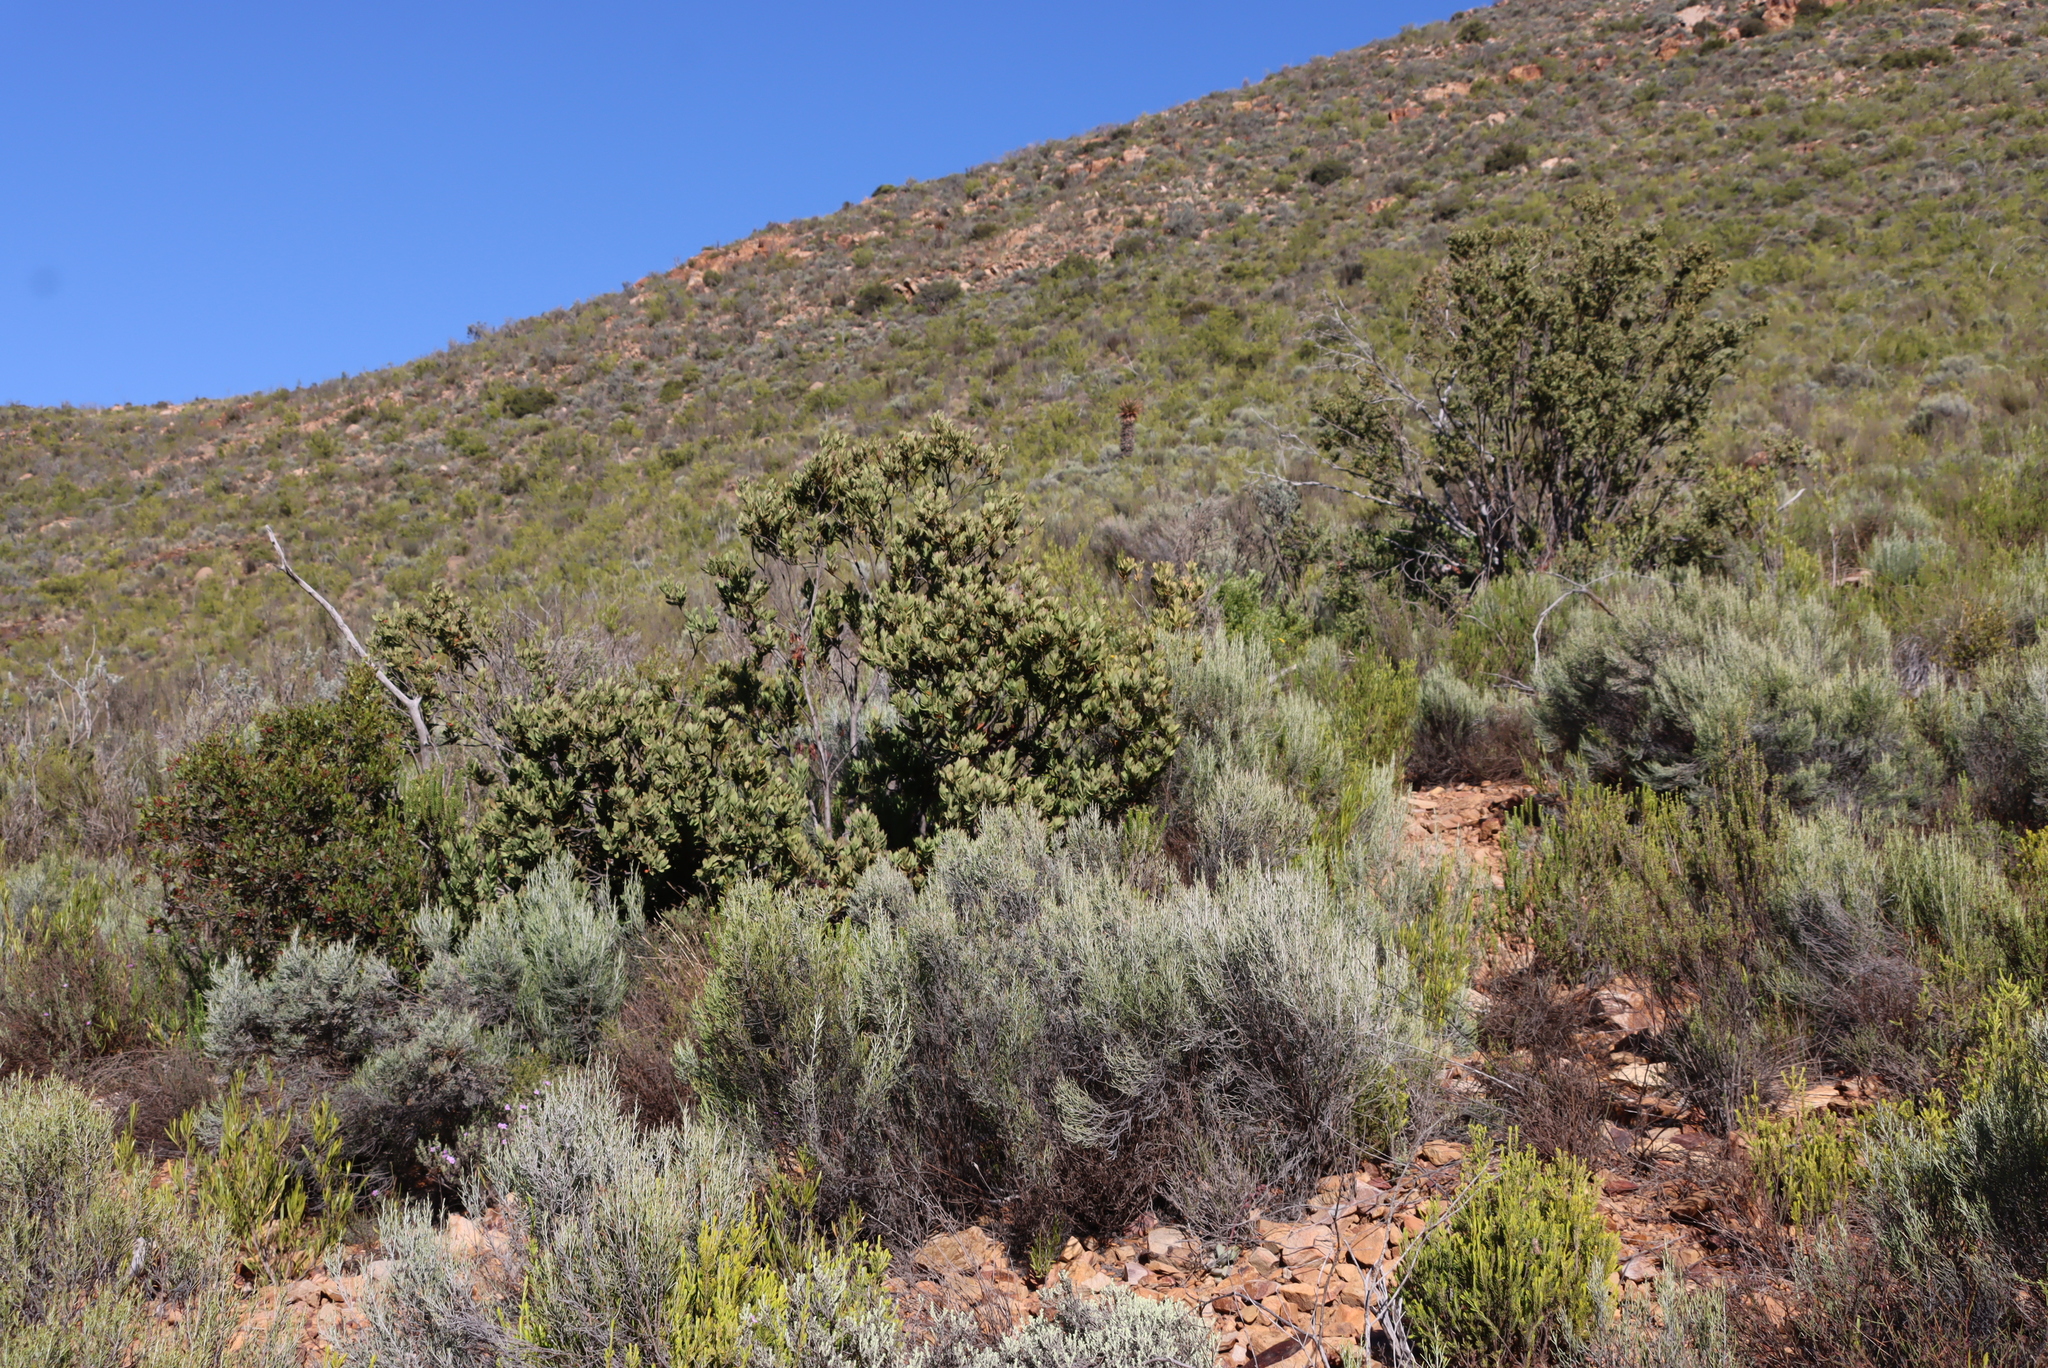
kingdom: Plantae
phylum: Tracheophyta
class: Magnoliopsida
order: Santalales
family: Santalaceae
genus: Osyris
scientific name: Osyris compressa
